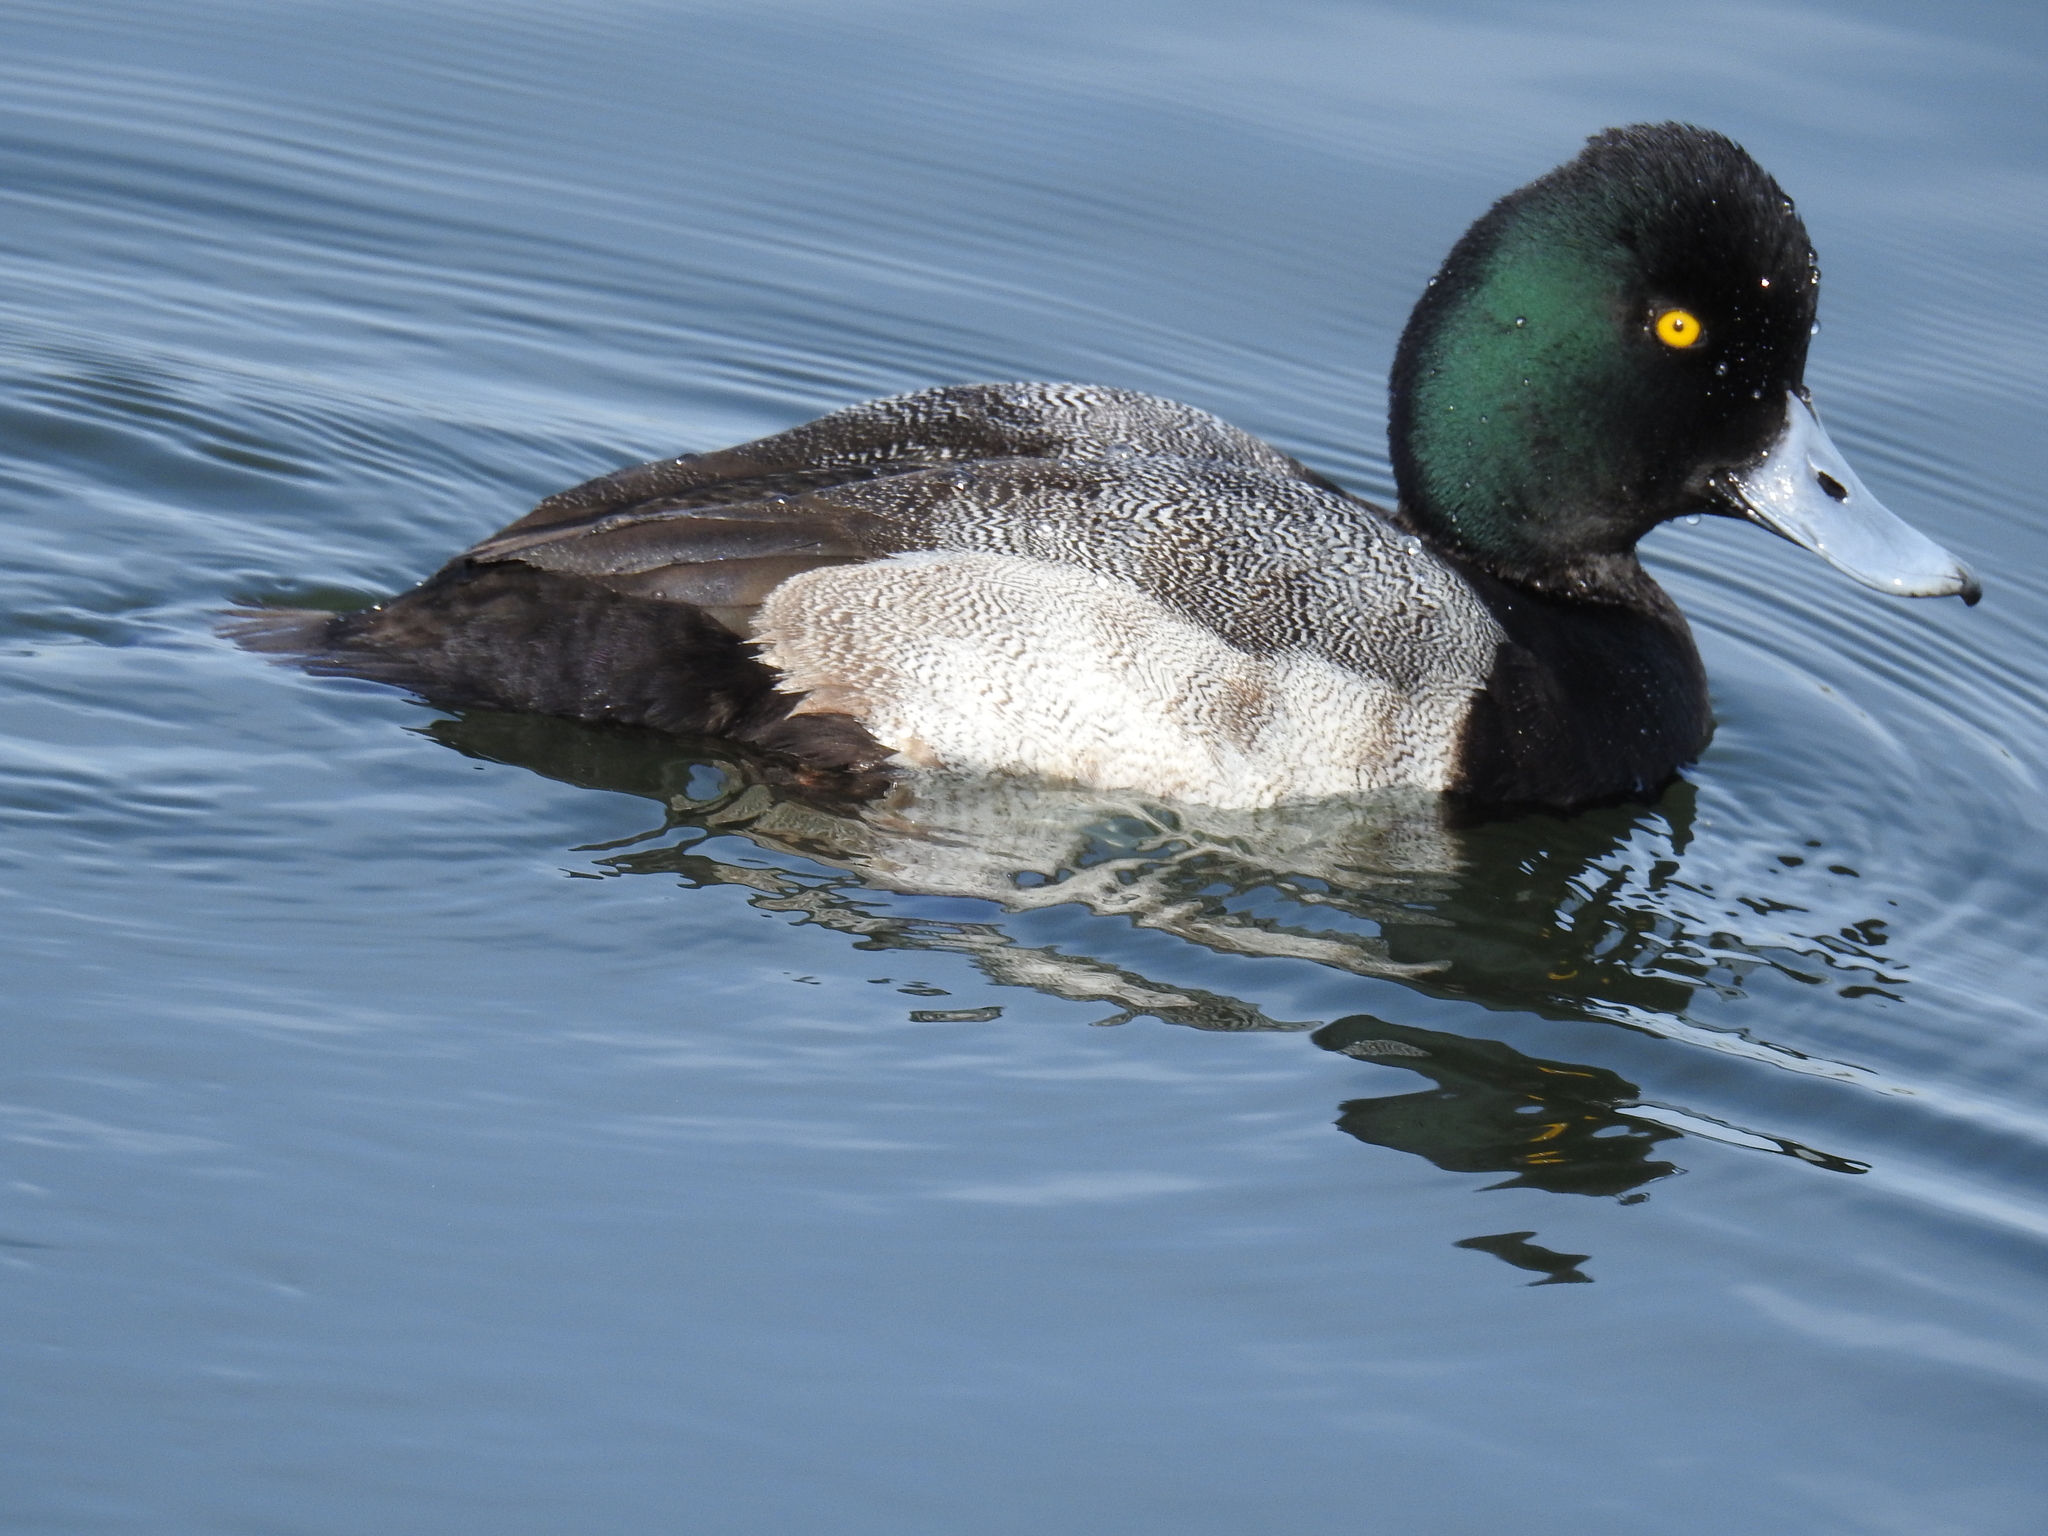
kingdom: Animalia
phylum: Chordata
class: Aves
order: Anseriformes
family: Anatidae
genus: Aythya
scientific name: Aythya affinis
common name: Lesser scaup
